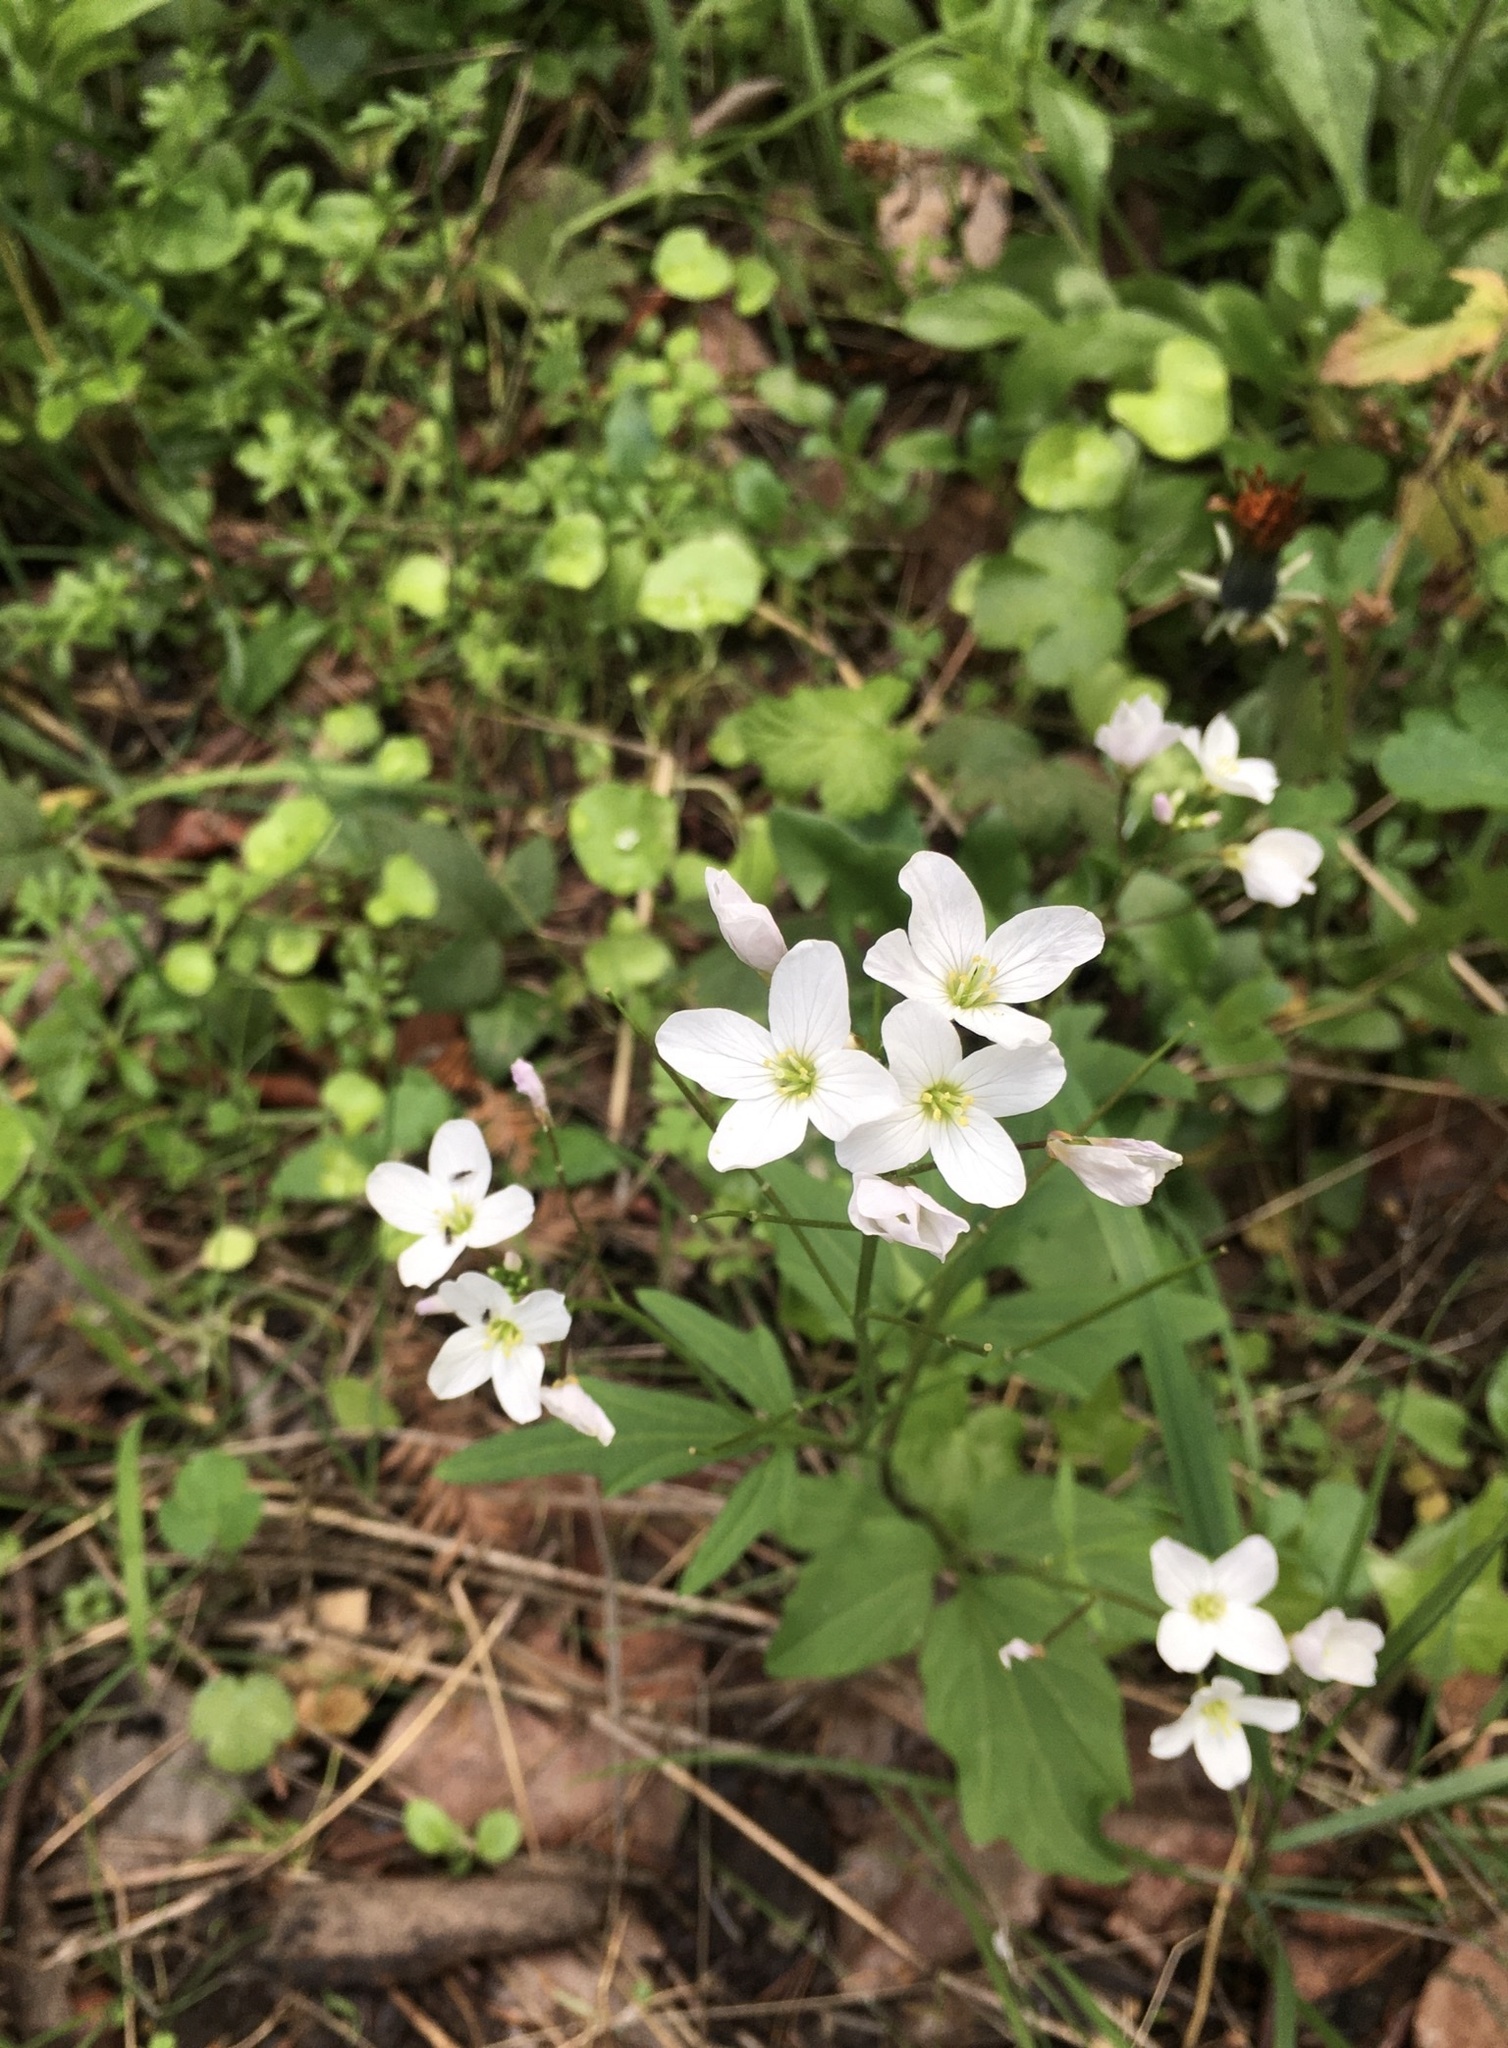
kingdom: Plantae
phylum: Tracheophyta
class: Magnoliopsida
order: Brassicales
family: Brassicaceae
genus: Cardamine
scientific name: Cardamine californica
